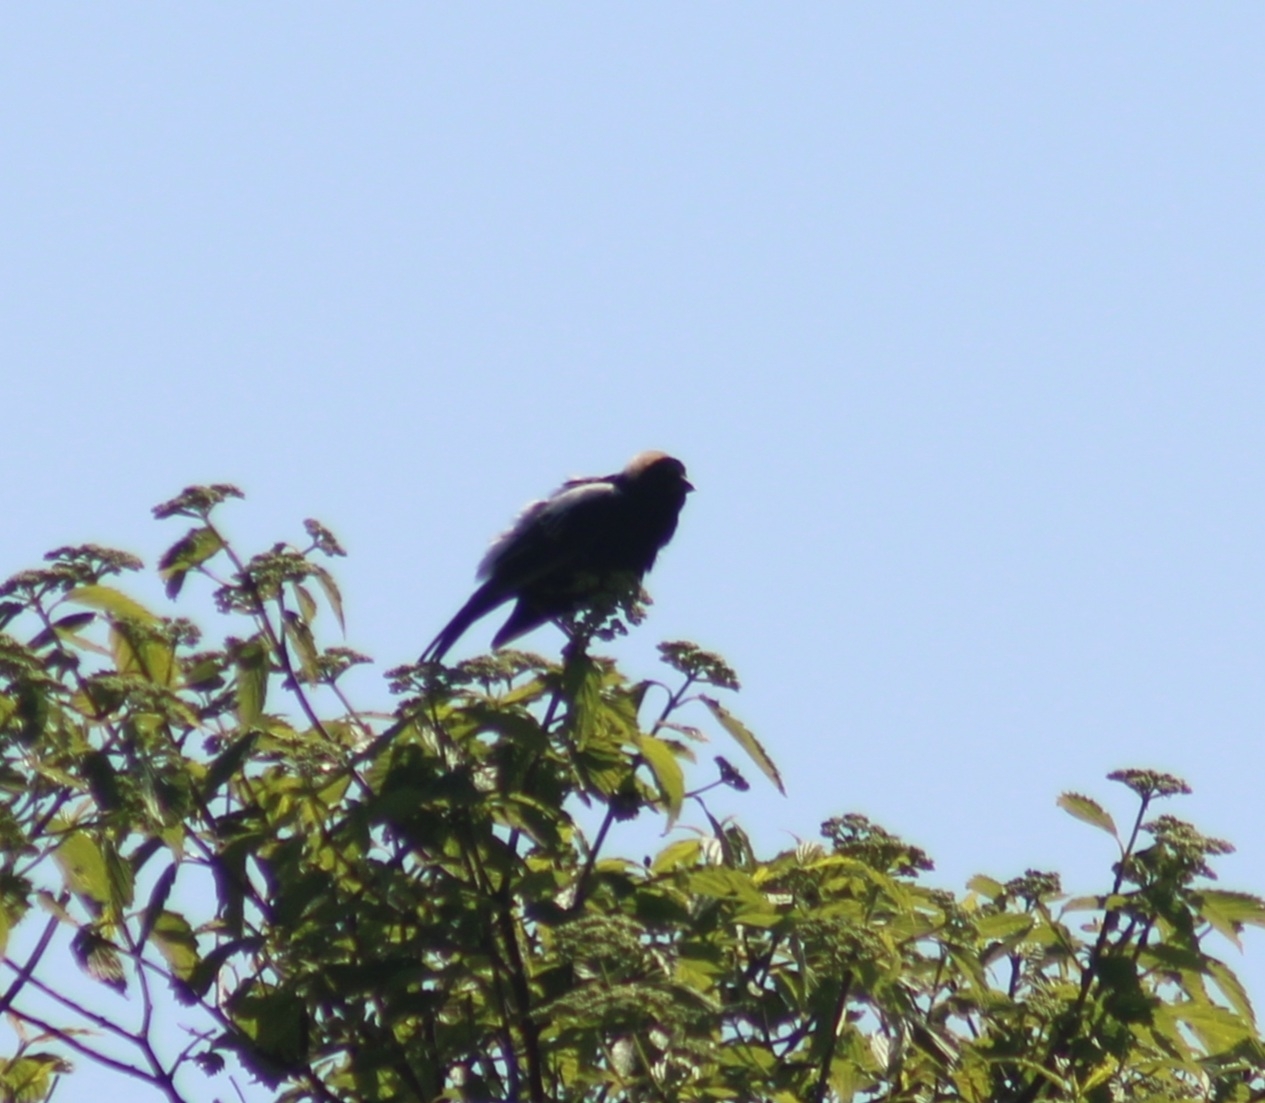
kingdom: Animalia
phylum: Chordata
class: Aves
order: Passeriformes
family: Icteridae
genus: Dolichonyx
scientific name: Dolichonyx oryzivorus
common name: Bobolink
